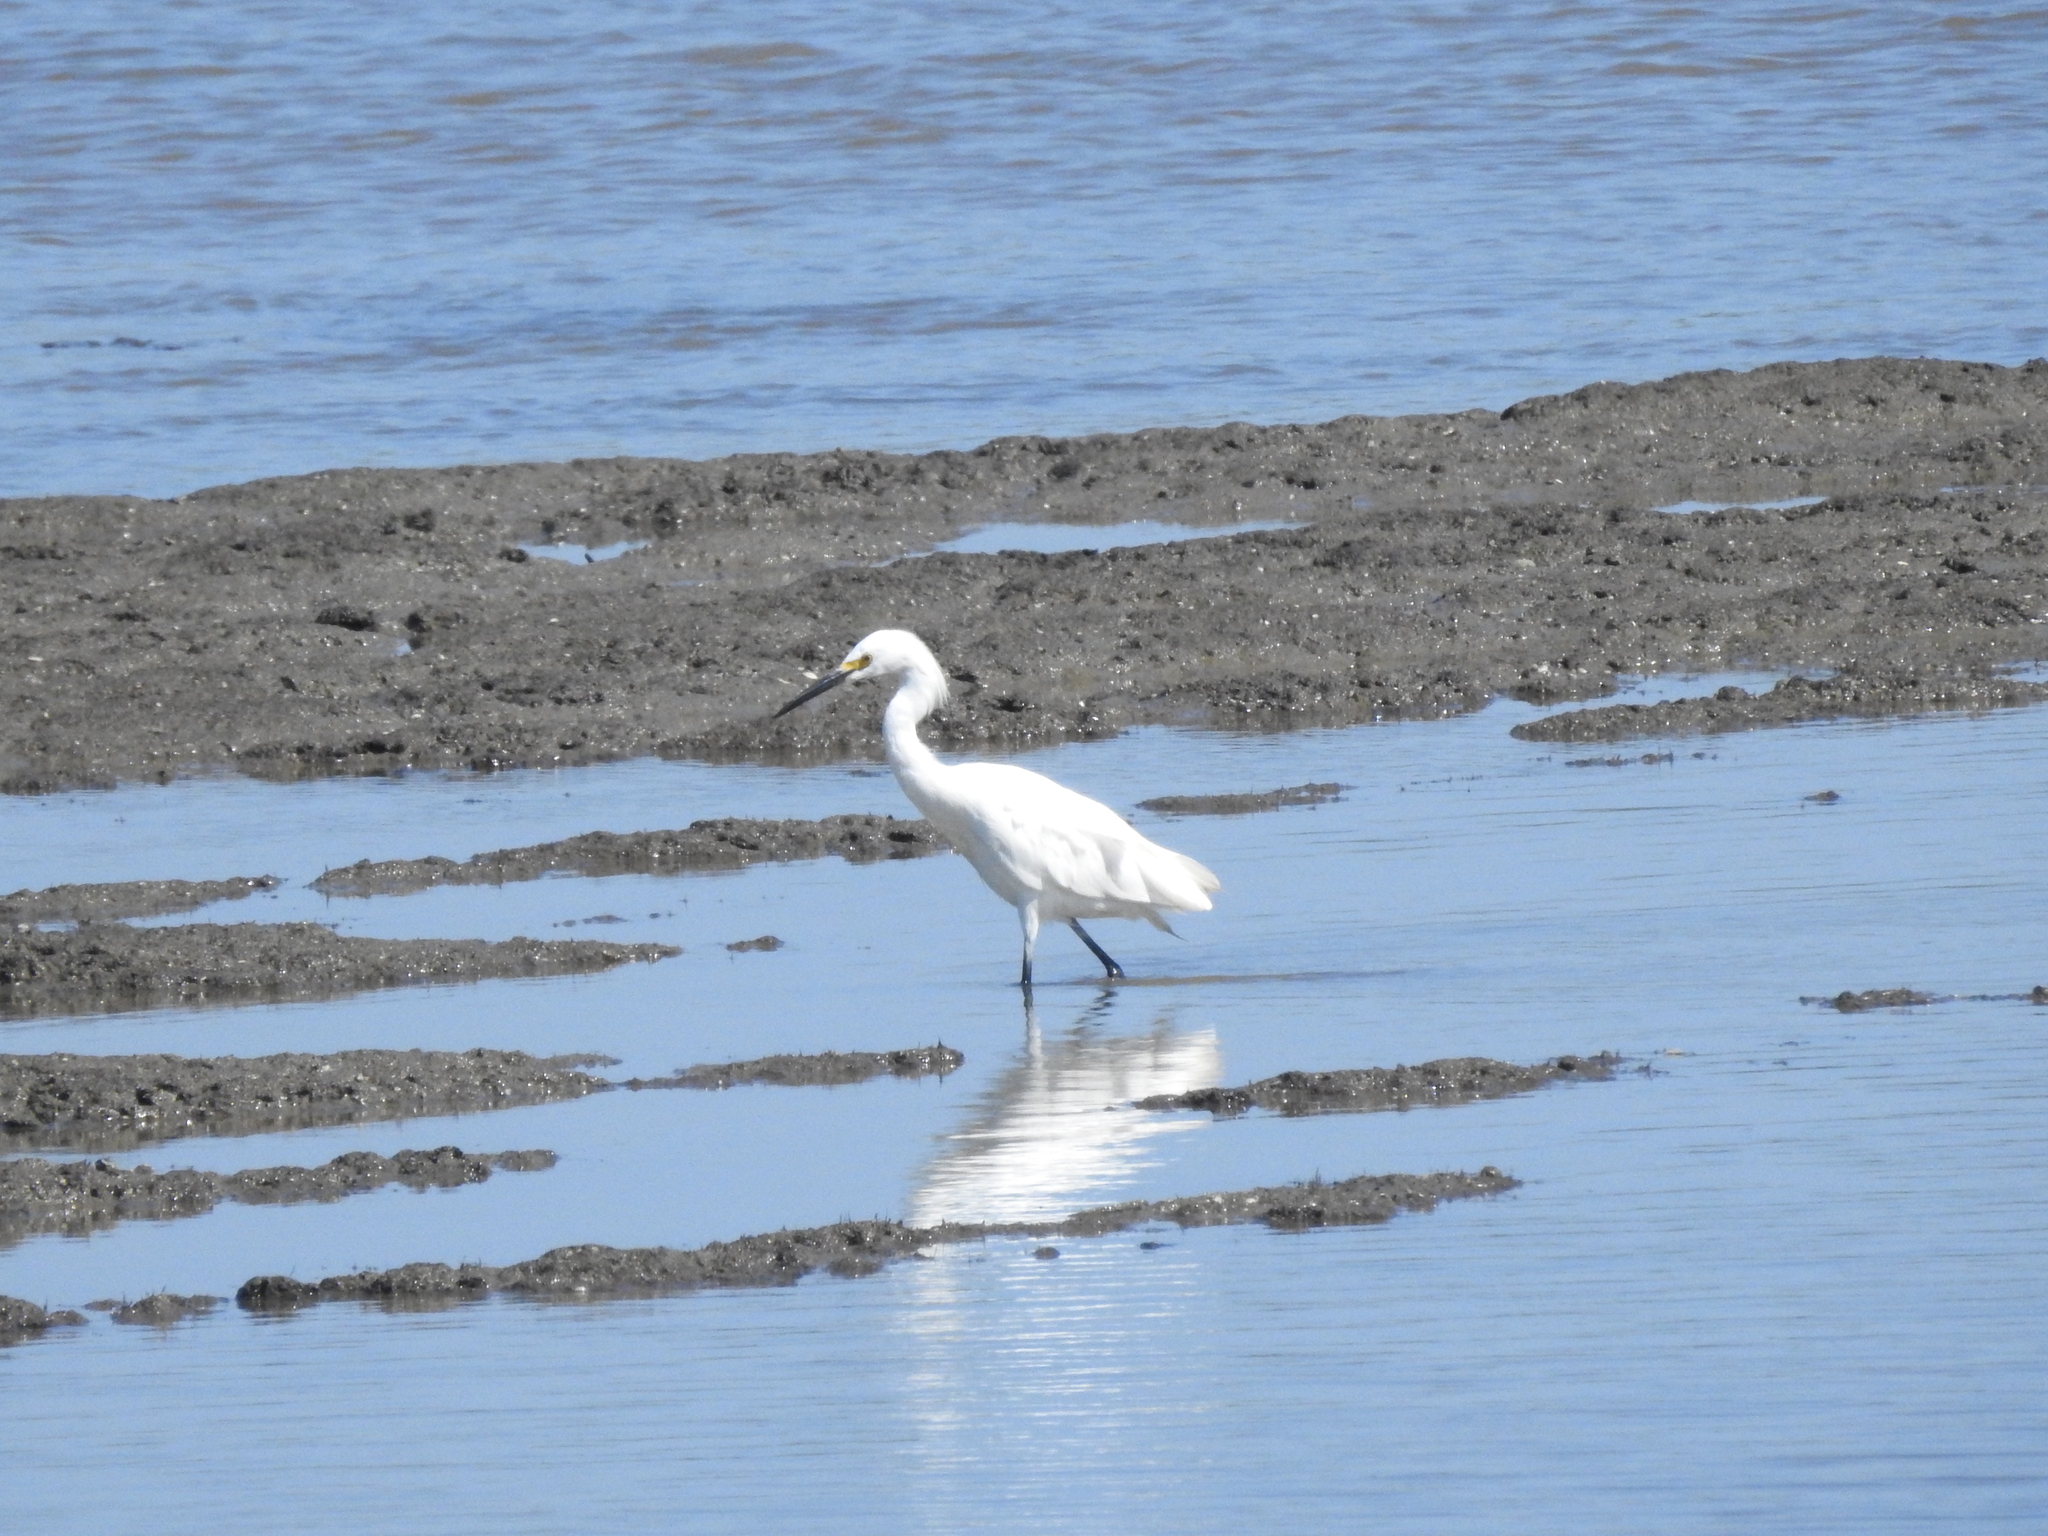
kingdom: Animalia
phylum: Chordata
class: Aves
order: Pelecaniformes
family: Ardeidae
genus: Egretta
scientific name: Egretta thula
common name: Snowy egret
